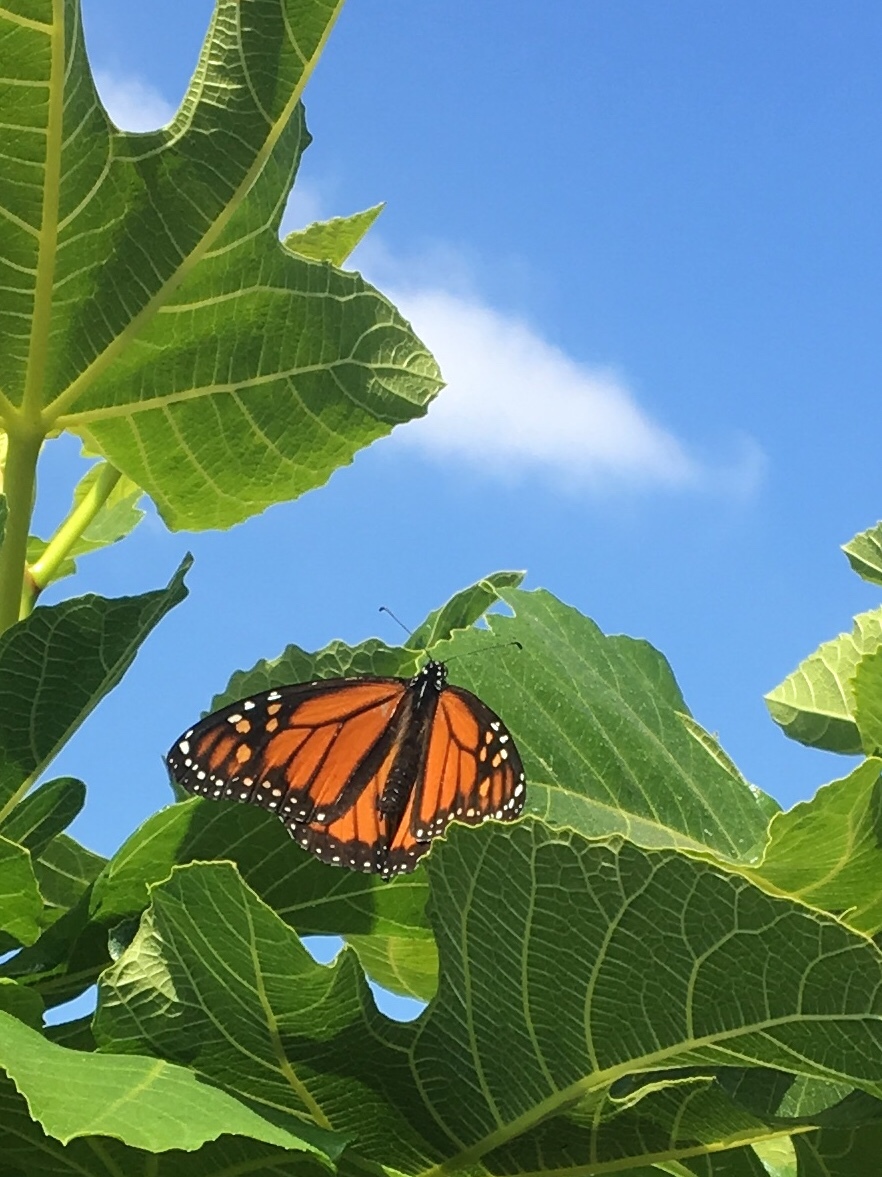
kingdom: Animalia
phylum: Arthropoda
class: Insecta
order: Lepidoptera
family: Nymphalidae
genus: Danaus
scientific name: Danaus plexippus
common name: Monarch
